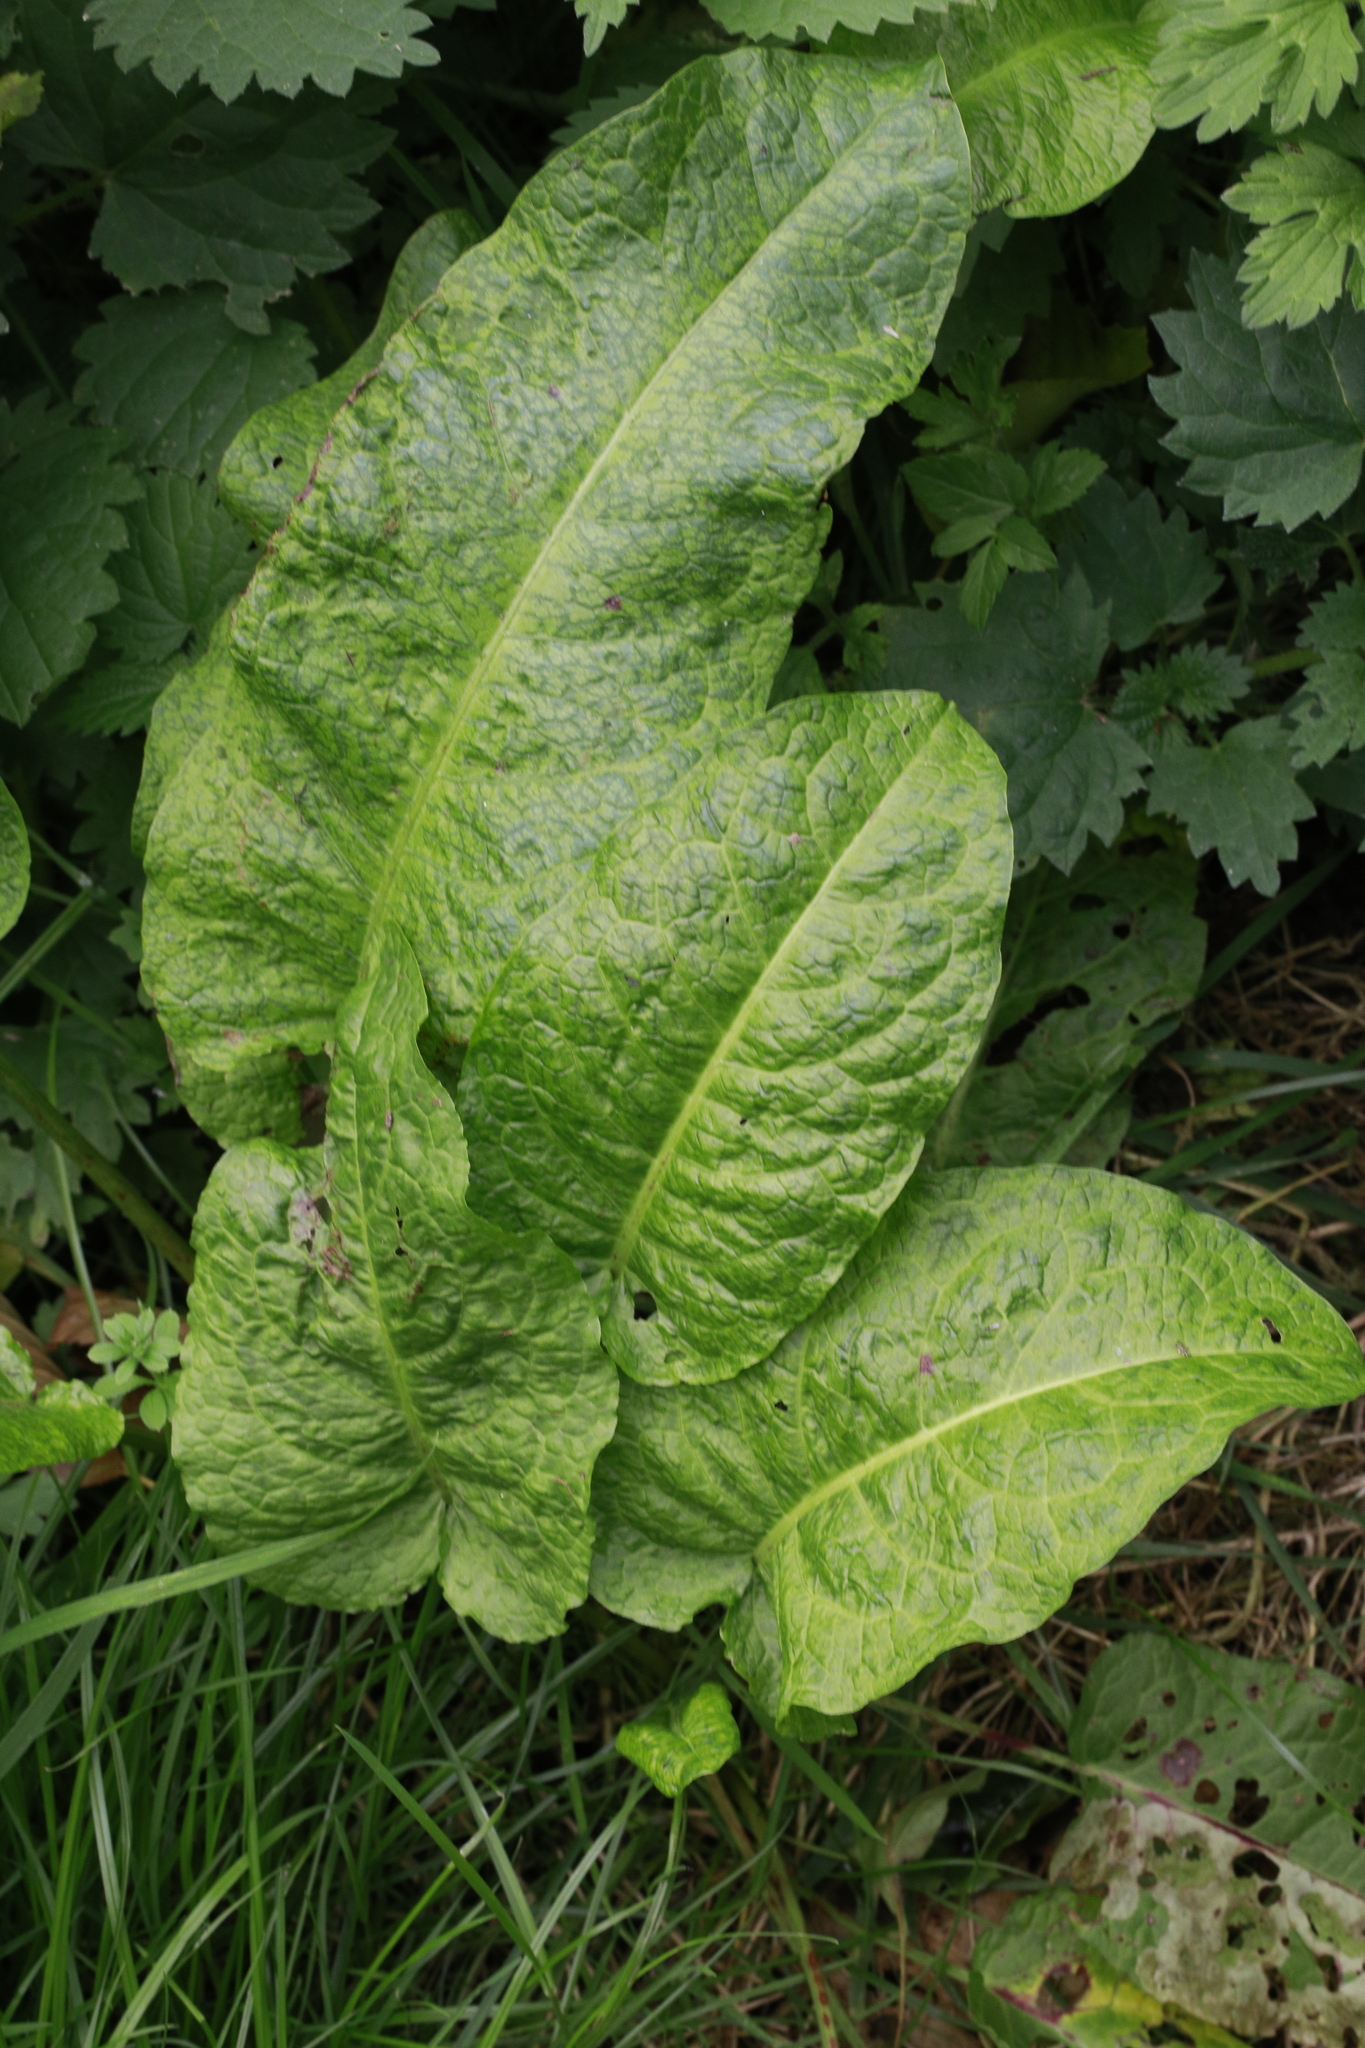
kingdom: Plantae
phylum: Tracheophyta
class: Magnoliopsida
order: Caryophyllales
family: Polygonaceae
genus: Rumex
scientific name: Rumex obtusifolius
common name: Bitter dock
